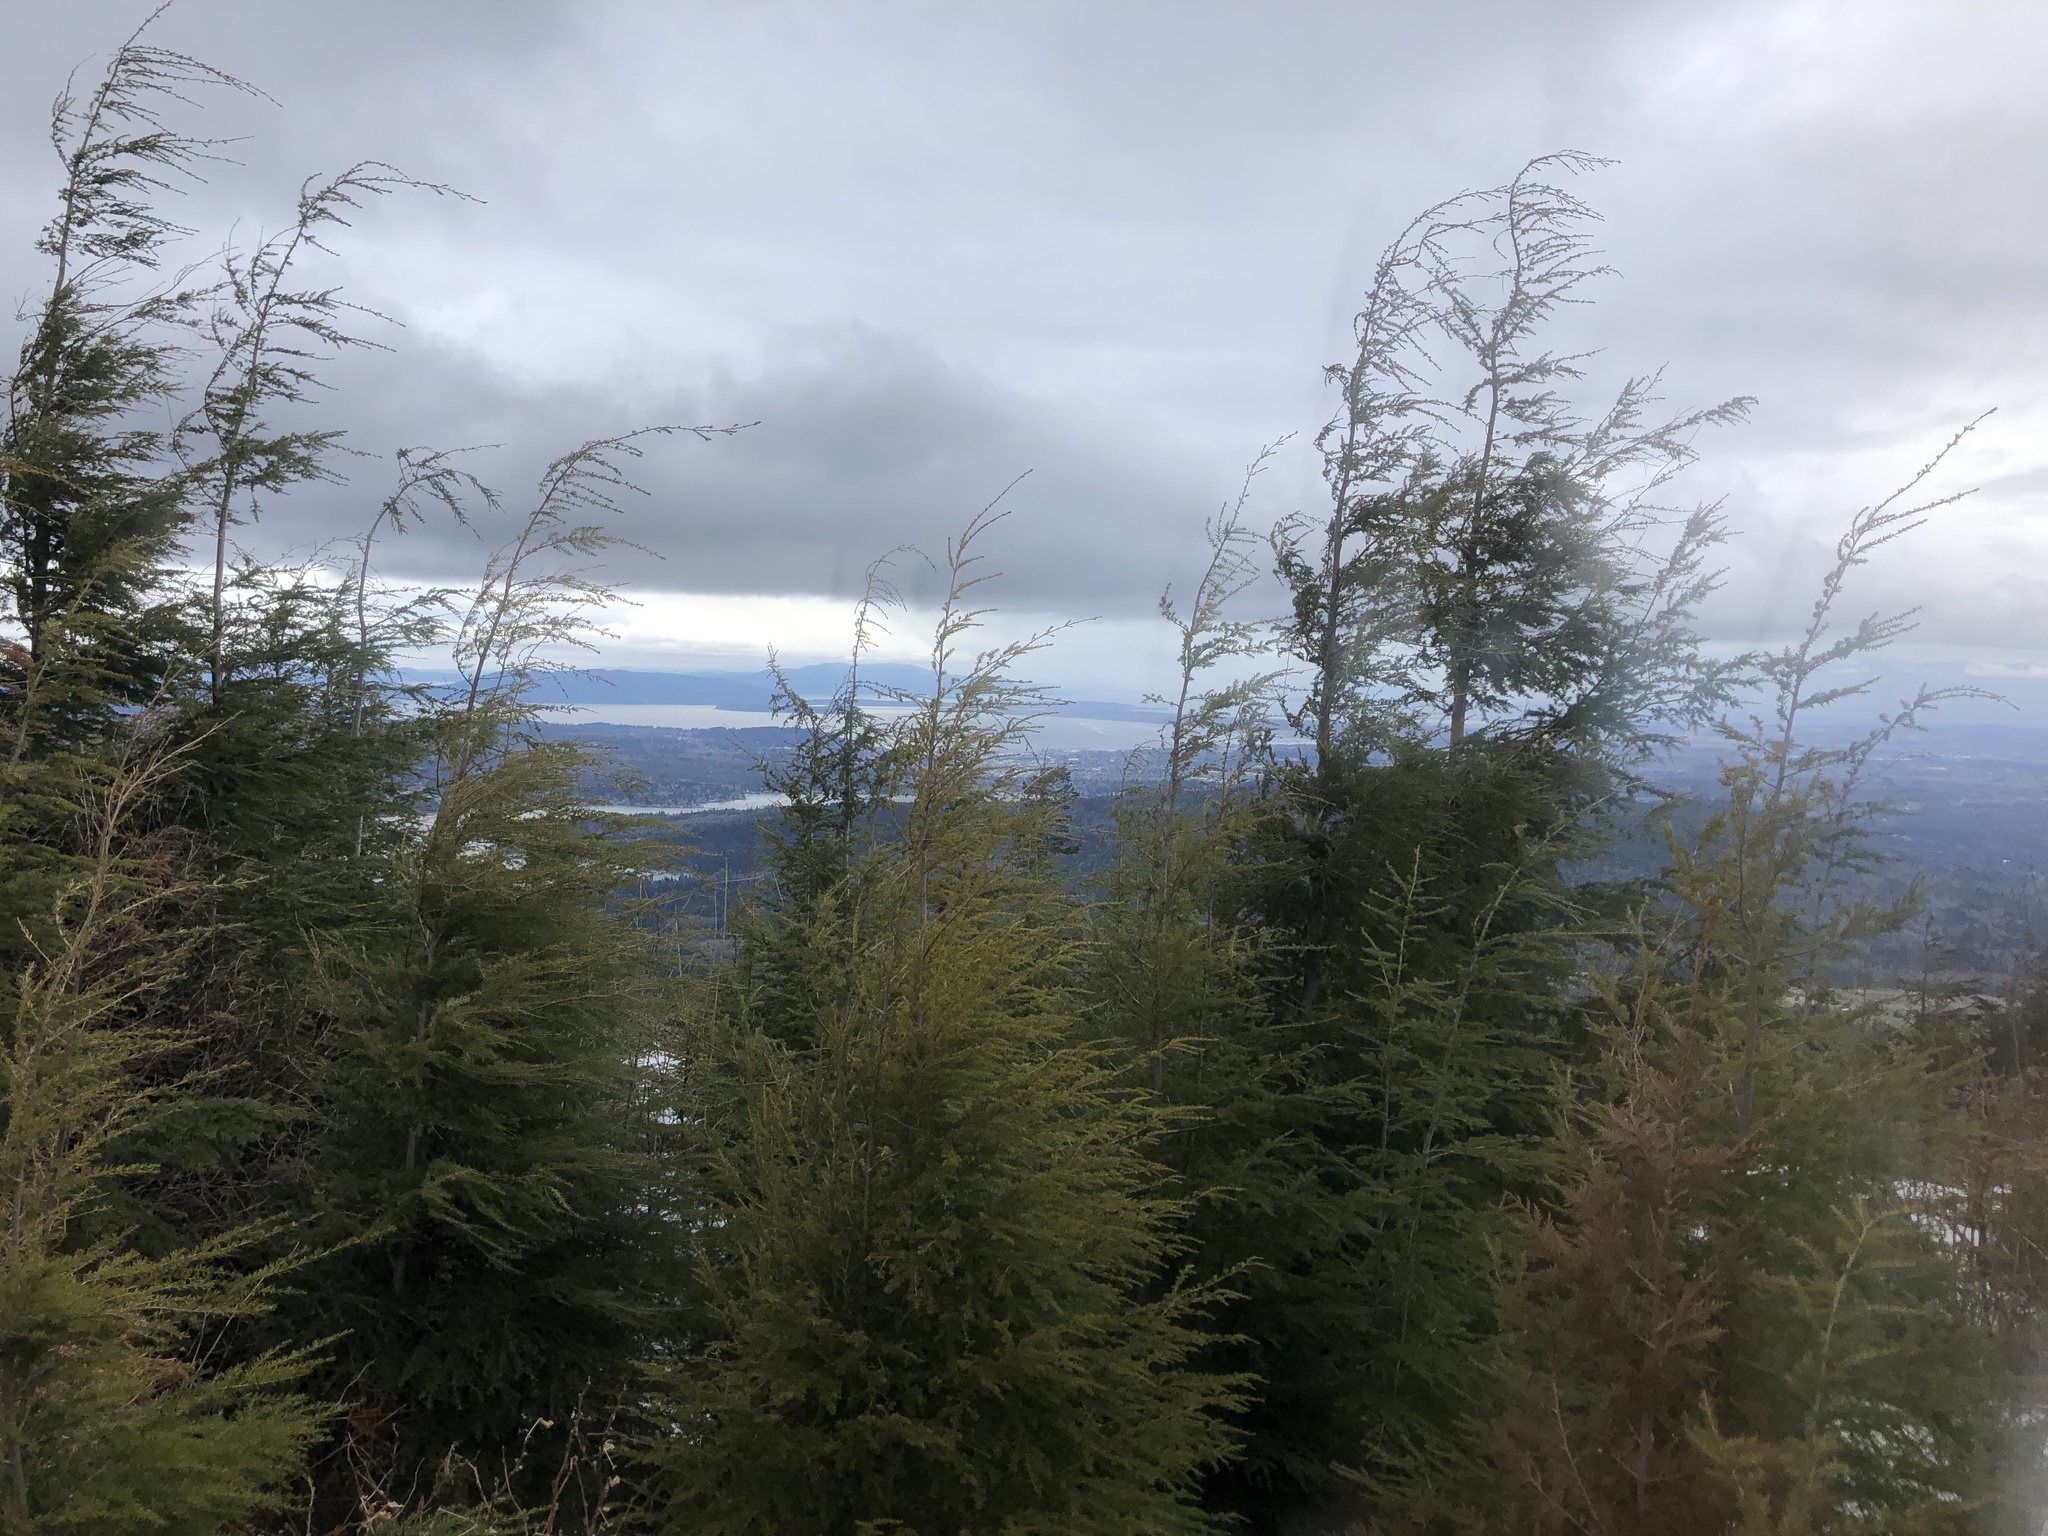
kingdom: Plantae
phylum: Tracheophyta
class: Pinopsida
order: Pinales
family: Pinaceae
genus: Tsuga
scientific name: Tsuga heterophylla
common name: Western hemlock
